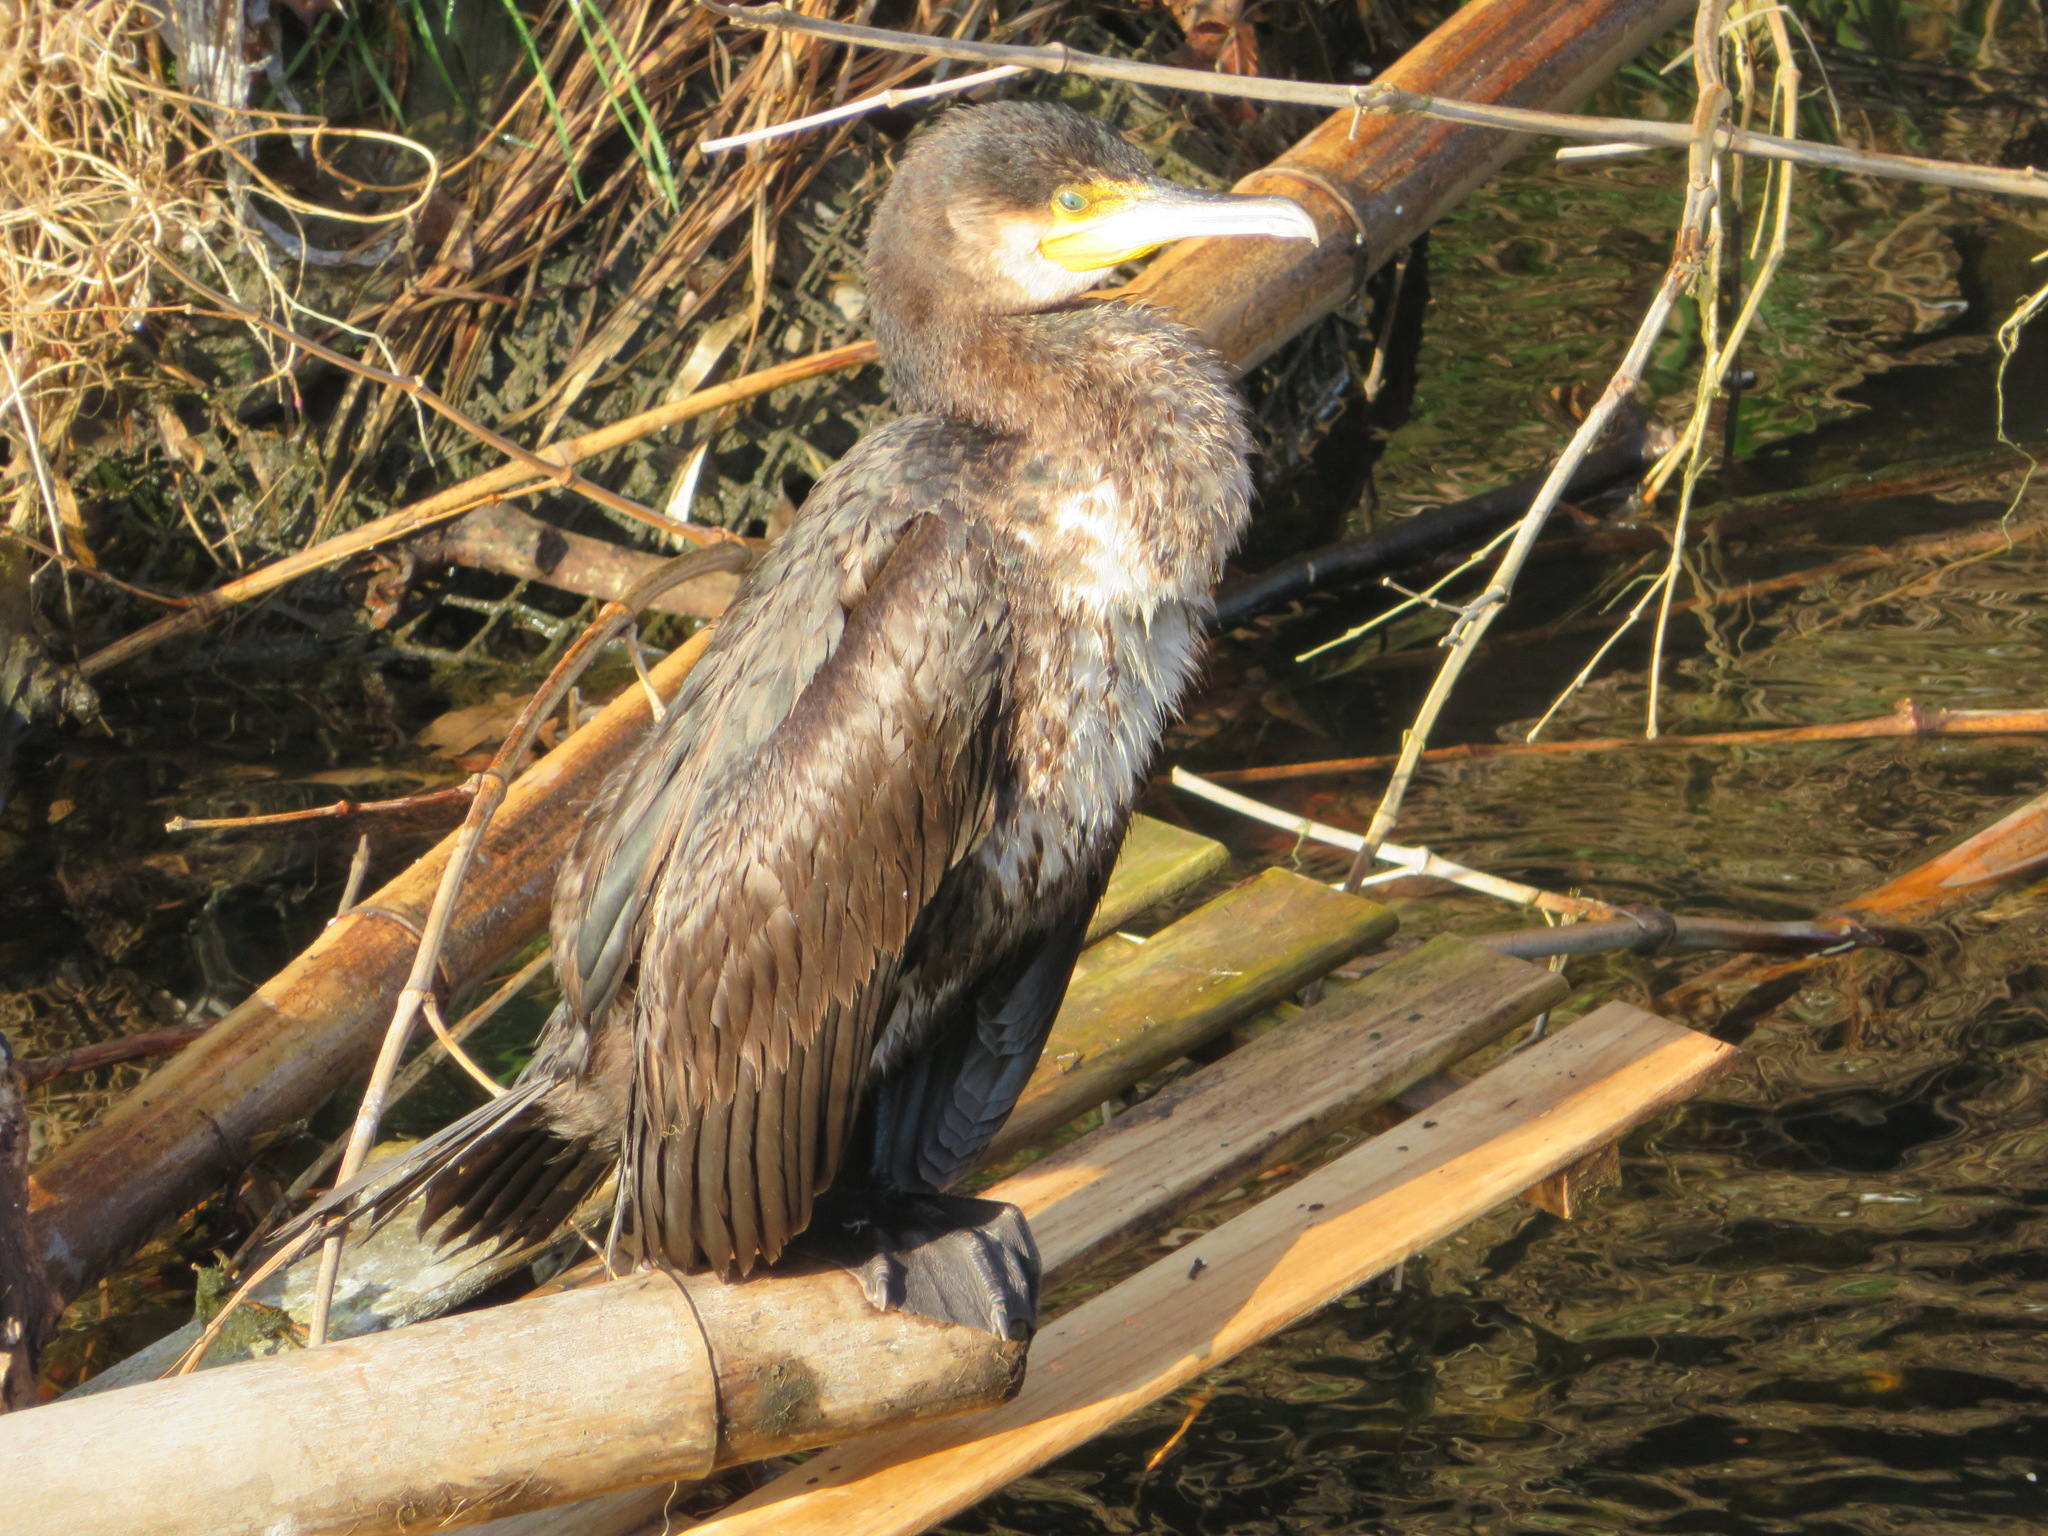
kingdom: Animalia
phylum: Chordata
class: Aves
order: Suliformes
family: Phalacrocoracidae
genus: Phalacrocorax
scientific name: Phalacrocorax carbo
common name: Great cormorant
